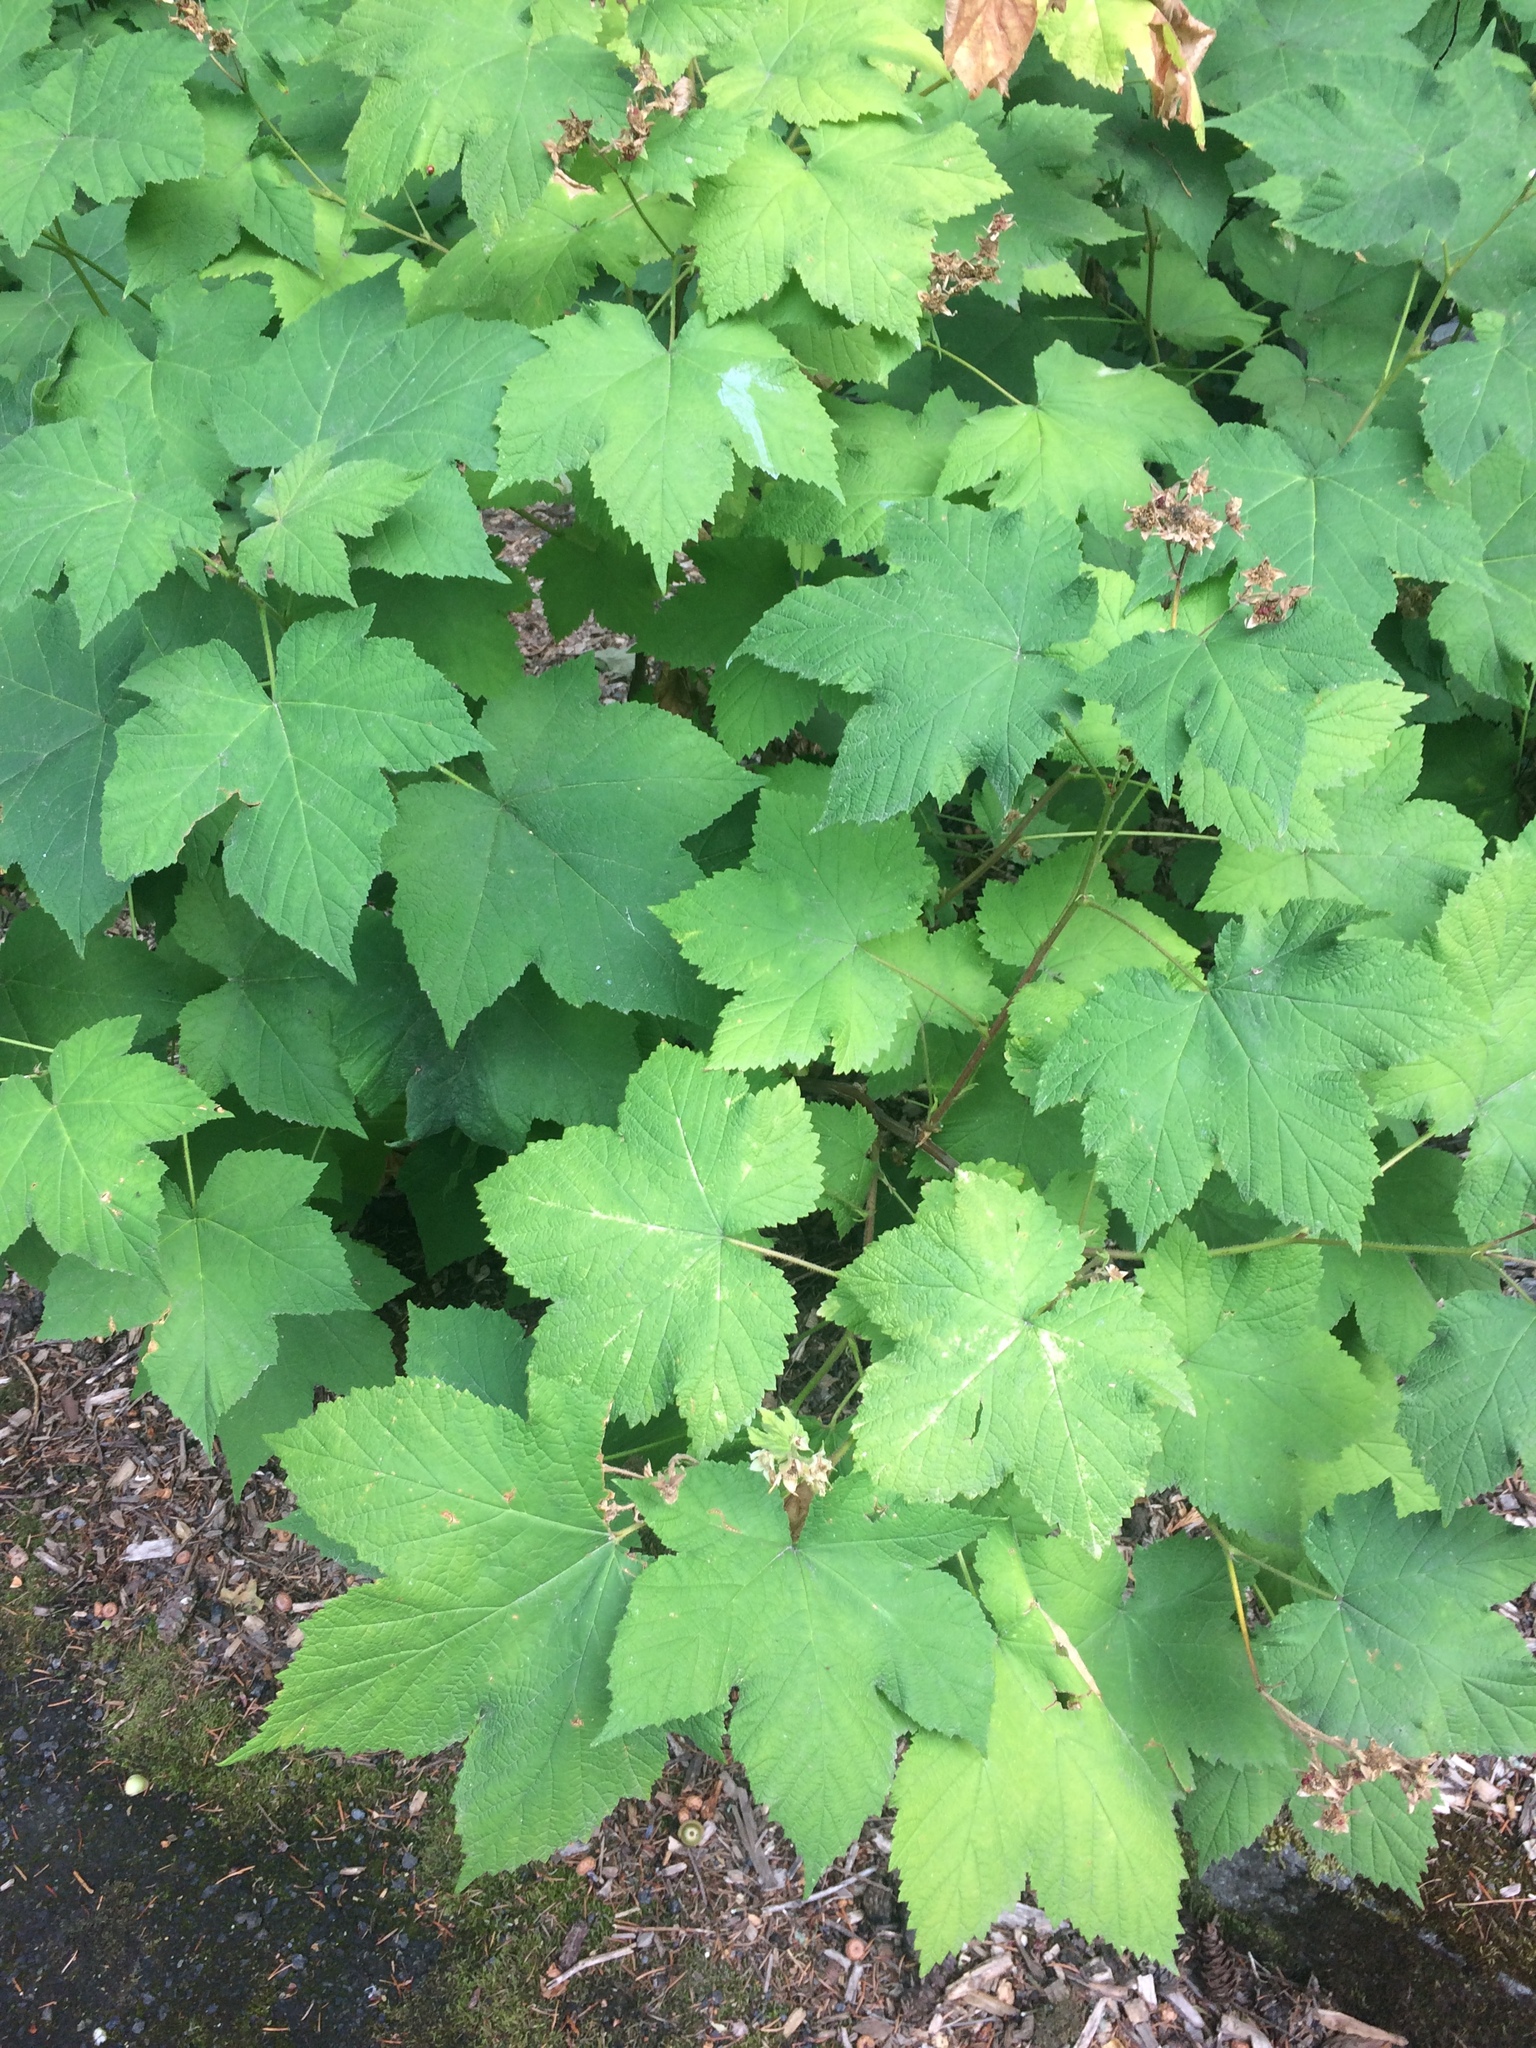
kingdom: Plantae
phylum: Tracheophyta
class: Magnoliopsida
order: Rosales
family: Rosaceae
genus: Rubus
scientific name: Rubus parviflorus
